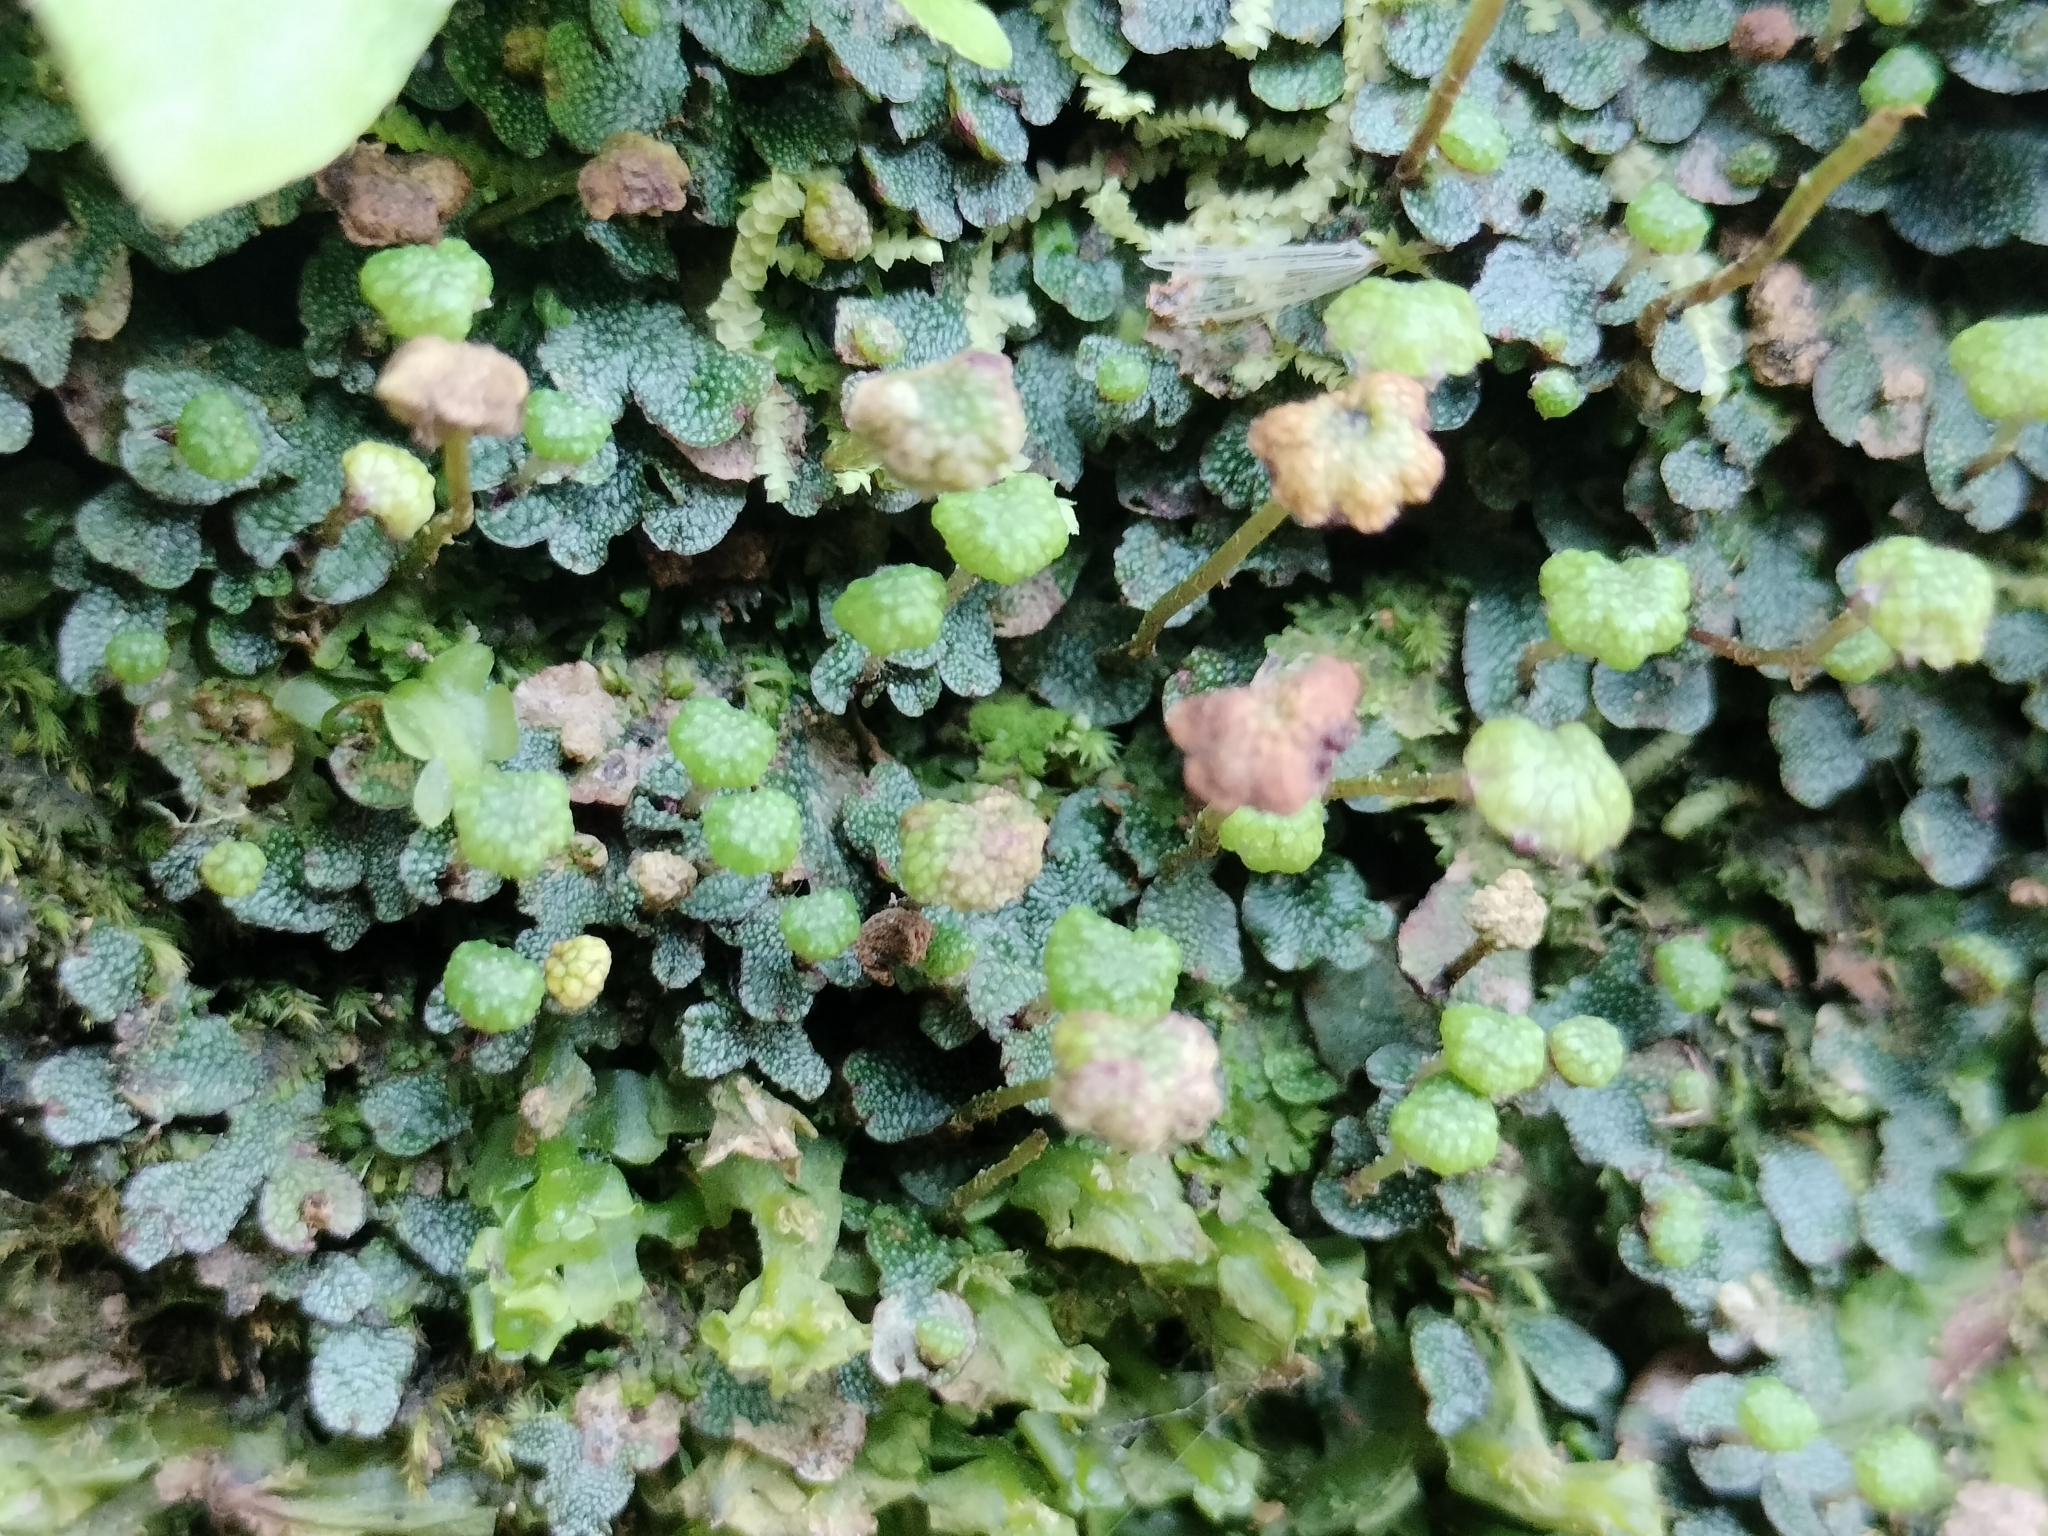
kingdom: Plantae
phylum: Marchantiophyta
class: Marchantiopsida
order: Marchantiales
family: Marchantiaceae
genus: Marchantia
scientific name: Marchantia chenopoda
